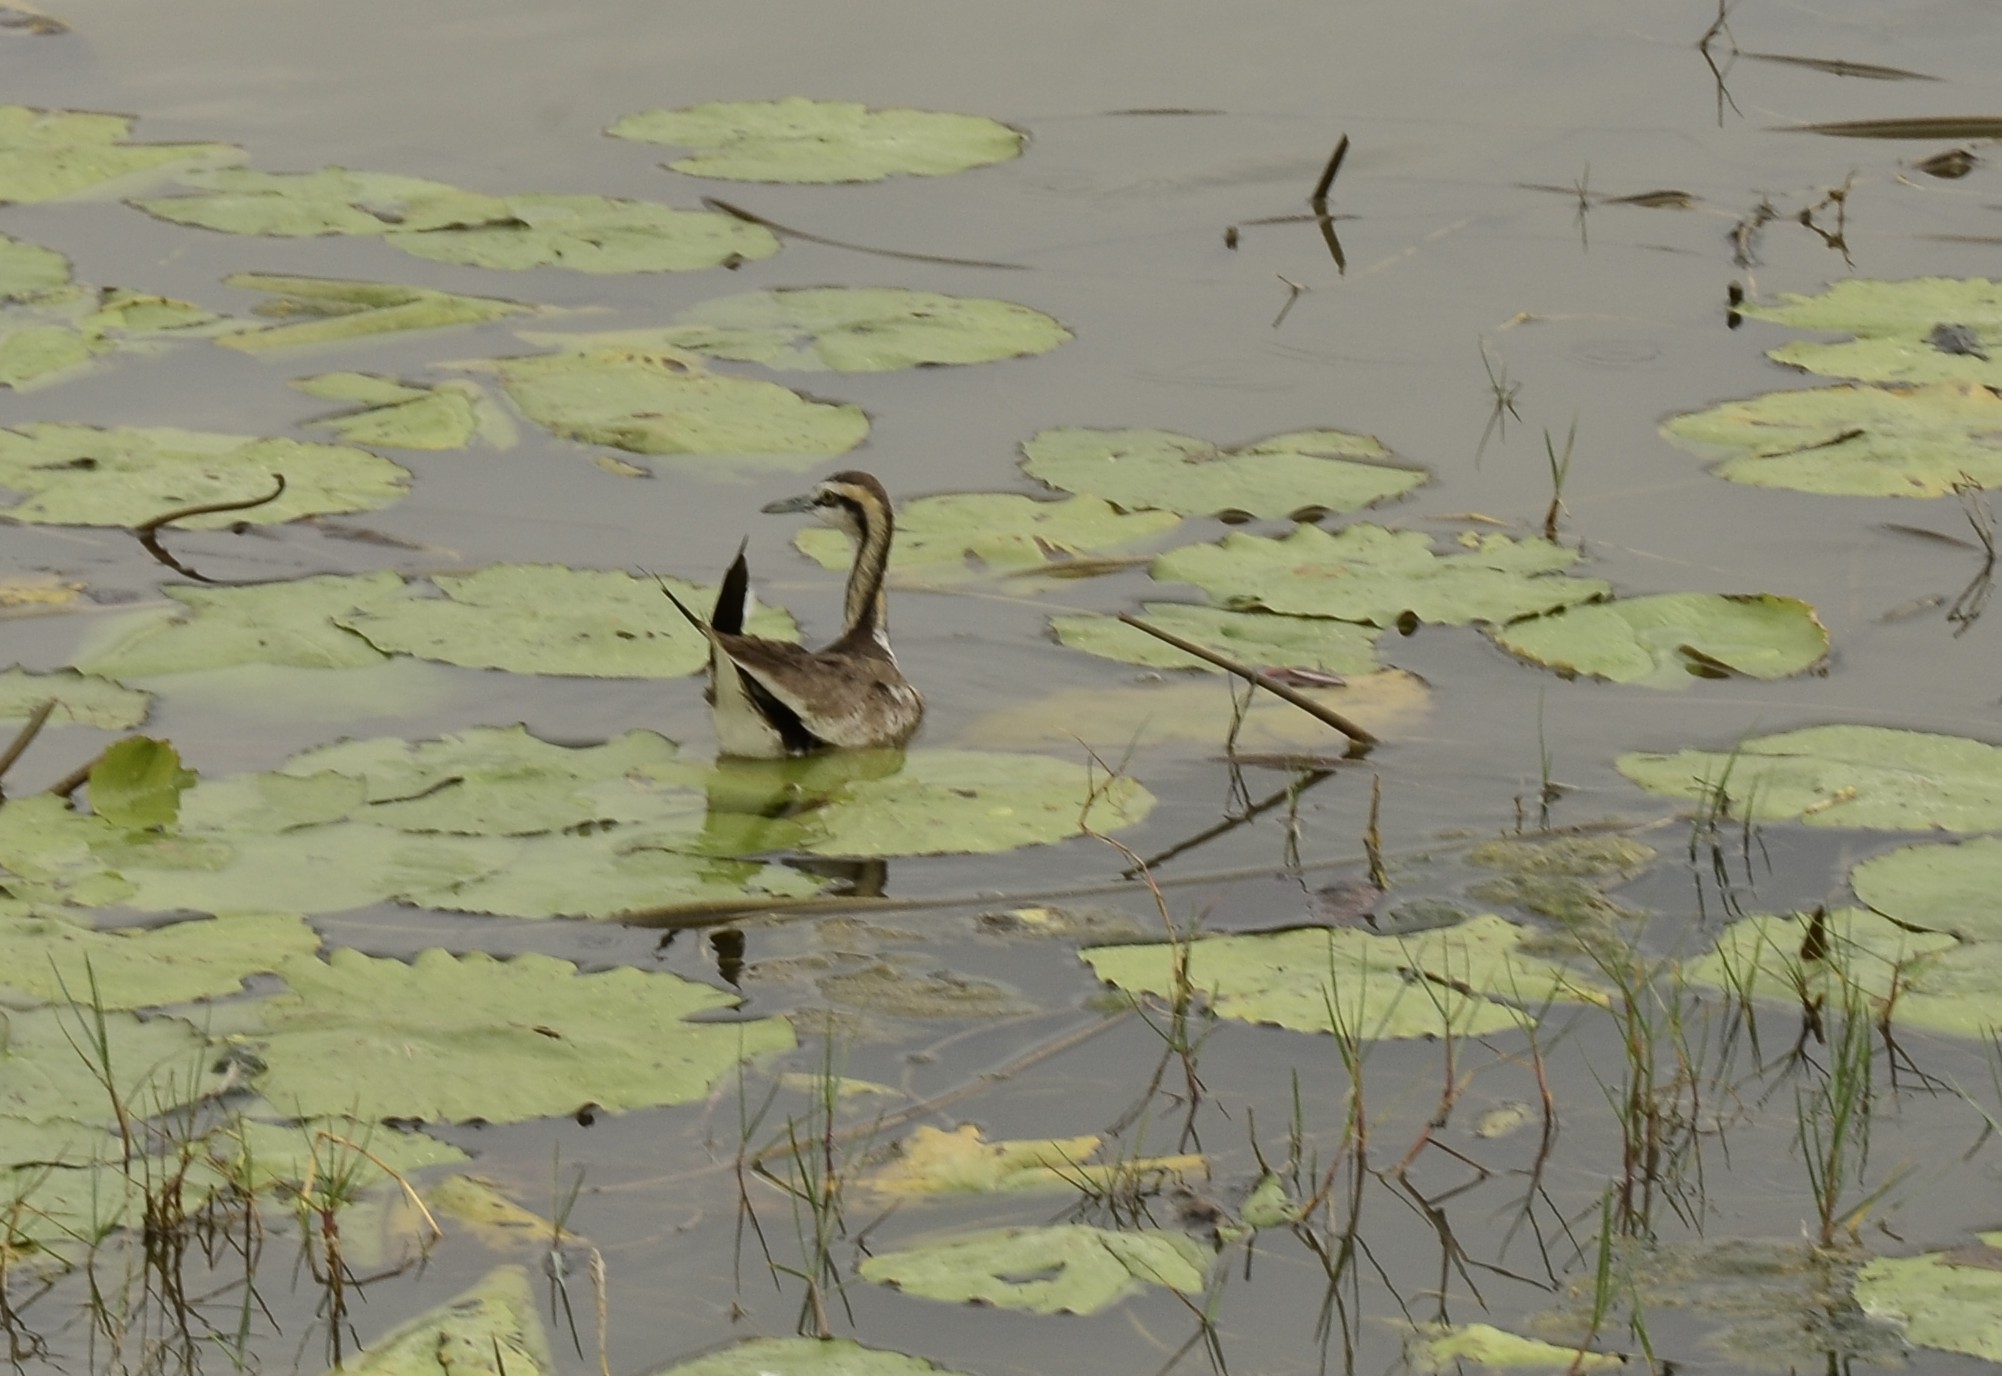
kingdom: Animalia
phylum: Chordata
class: Aves
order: Charadriiformes
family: Jacanidae
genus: Hydrophasianus
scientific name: Hydrophasianus chirurgus
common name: Pheasant-tailed jacana
